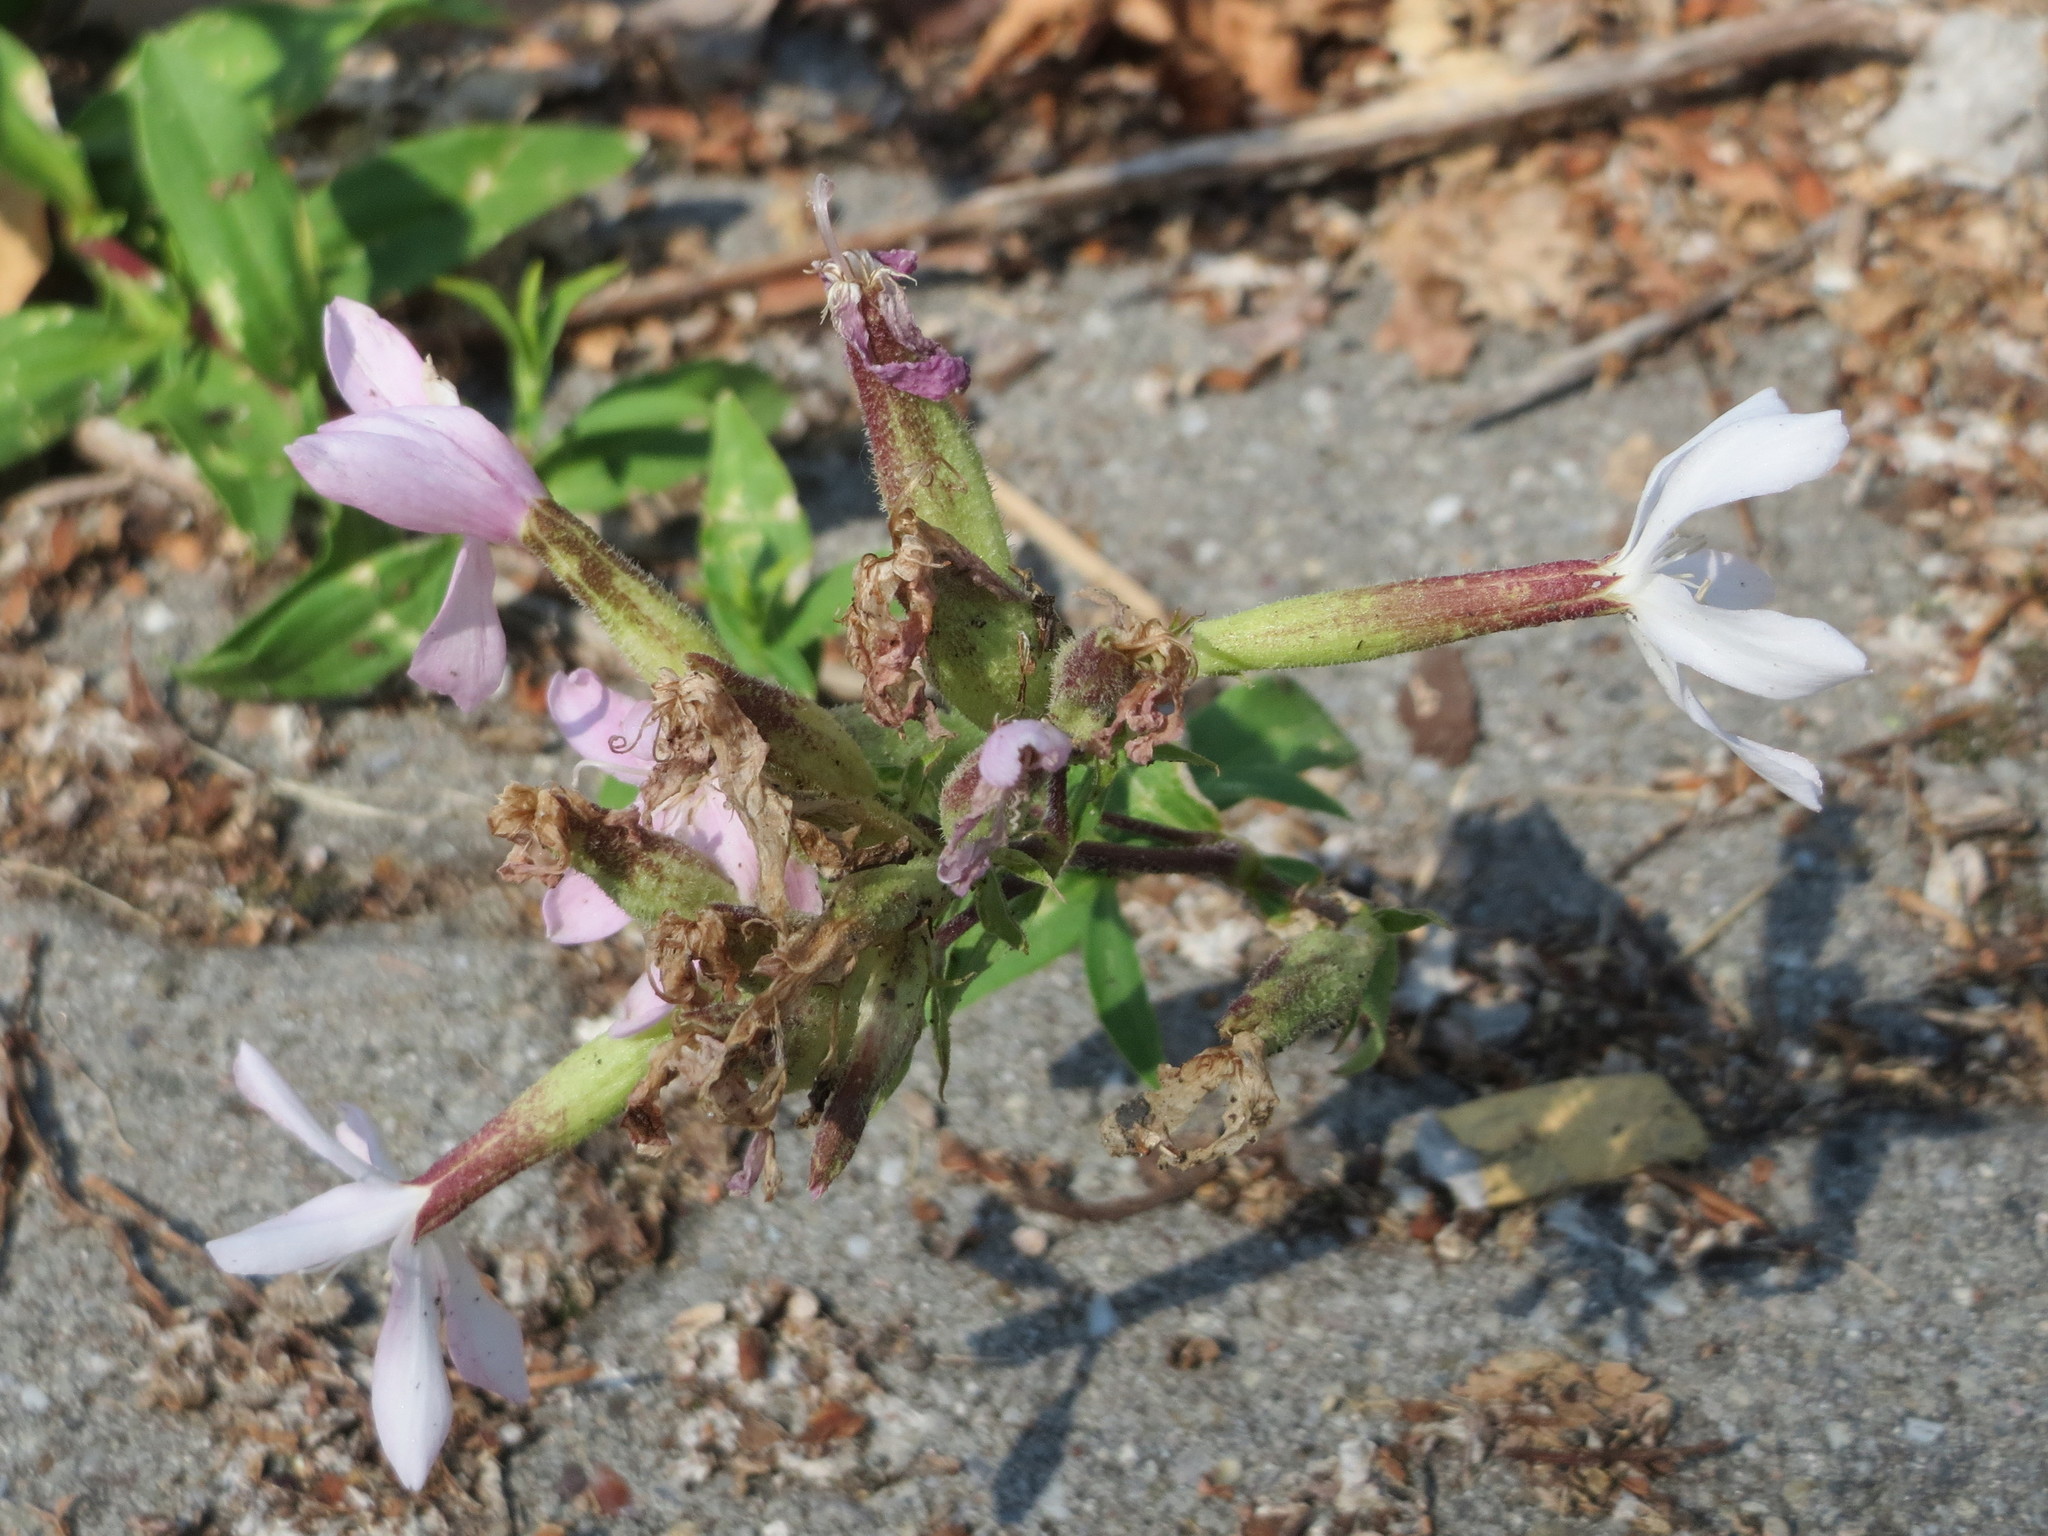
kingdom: Plantae
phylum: Tracheophyta
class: Magnoliopsida
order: Caryophyllales
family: Caryophyllaceae
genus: Saponaria
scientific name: Saponaria officinalis
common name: Soapwort
